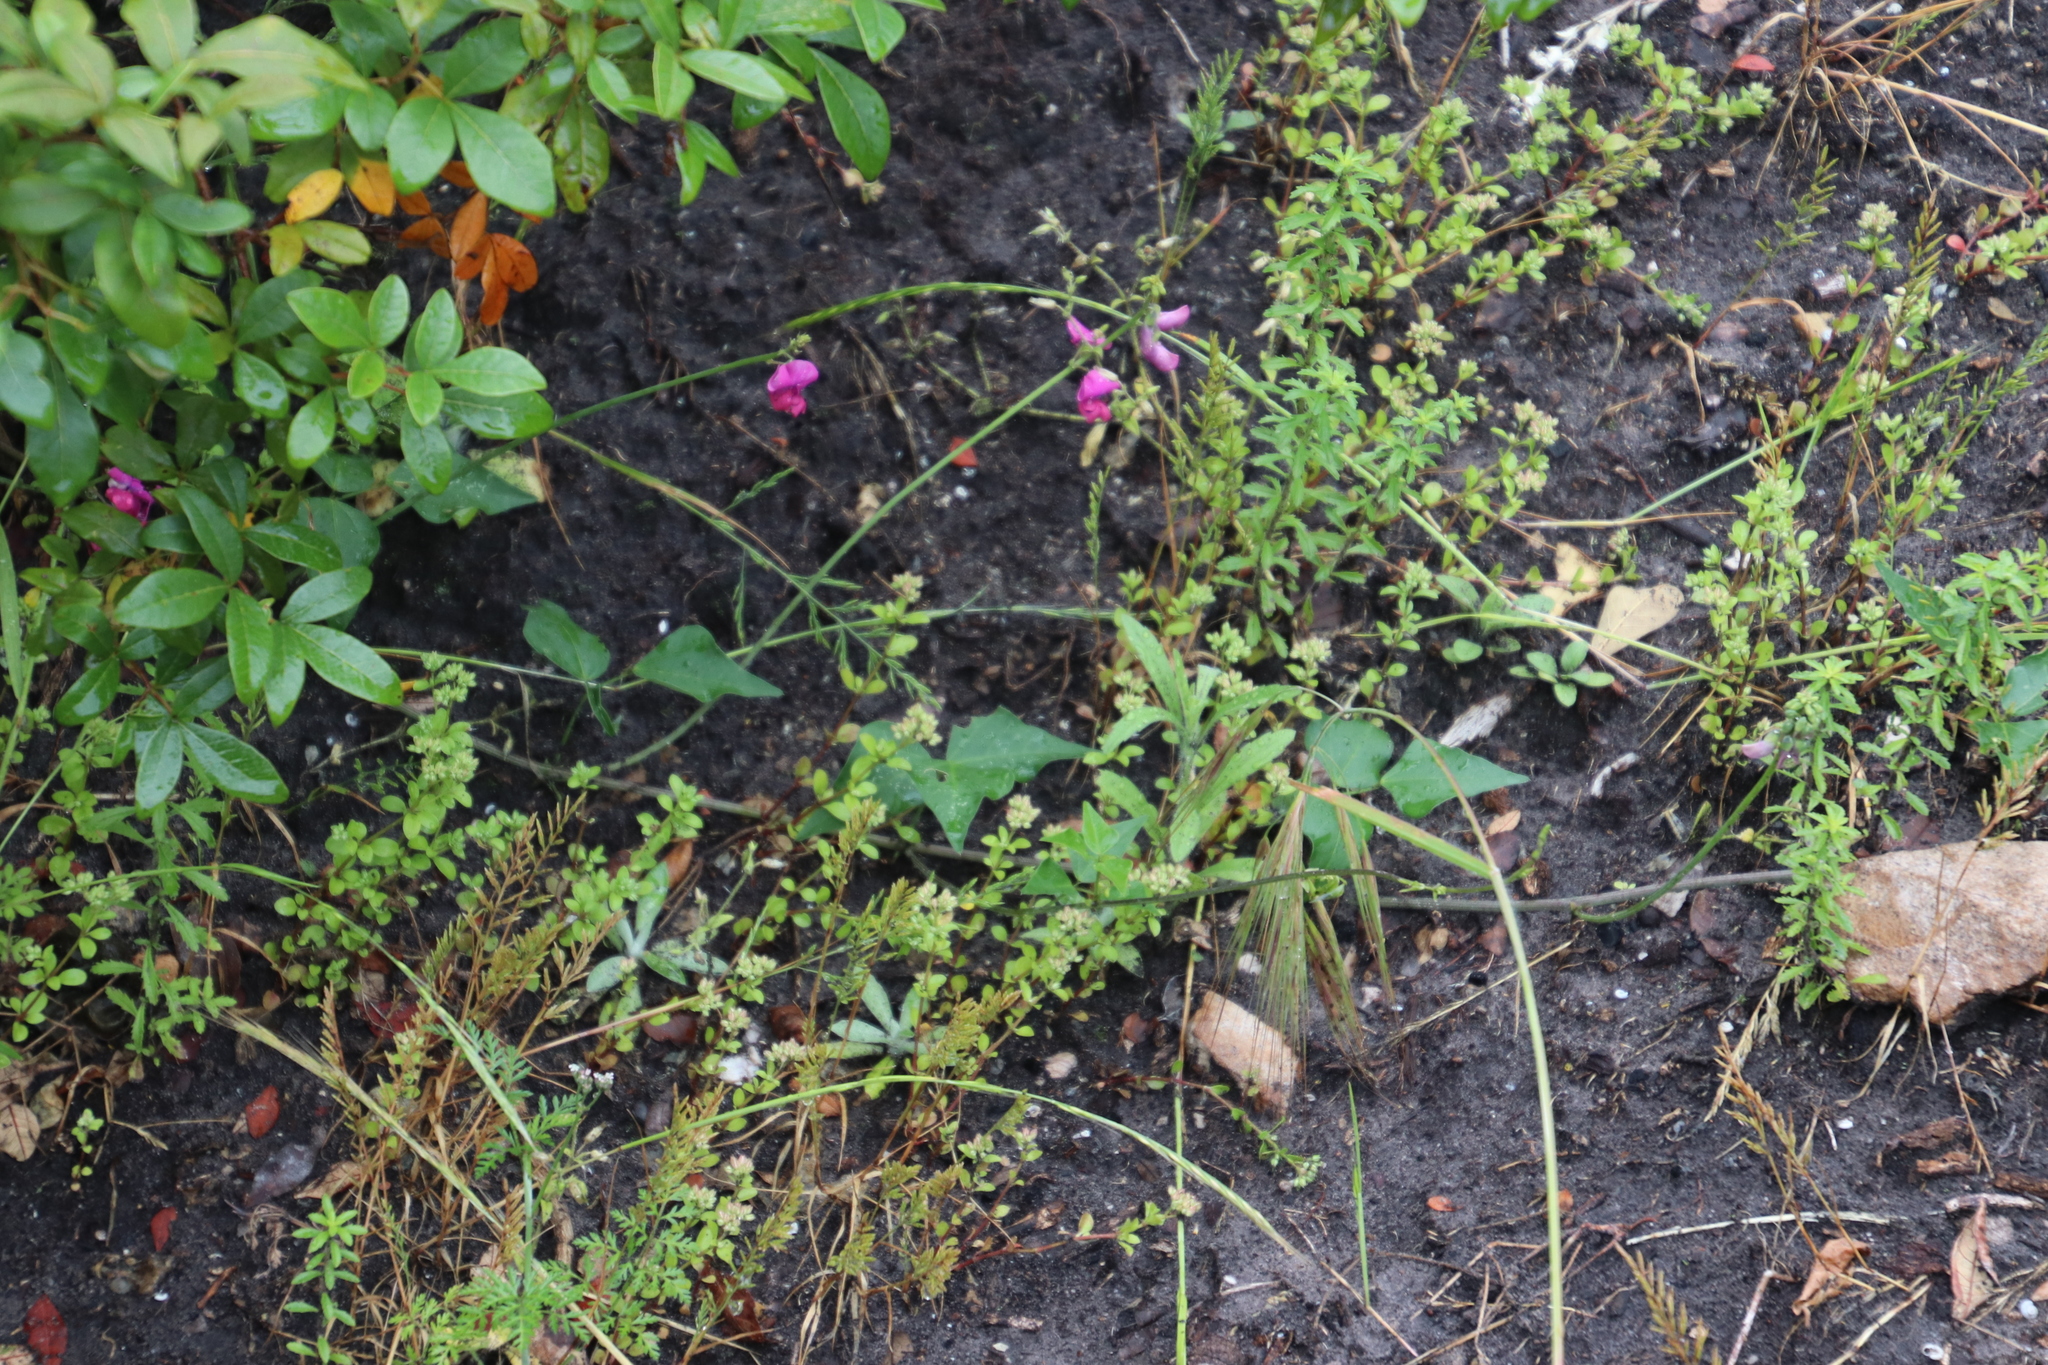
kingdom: Plantae
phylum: Tracheophyta
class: Magnoliopsida
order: Fabales
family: Fabaceae
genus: Dipogon
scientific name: Dipogon lignosus
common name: Okie bean
